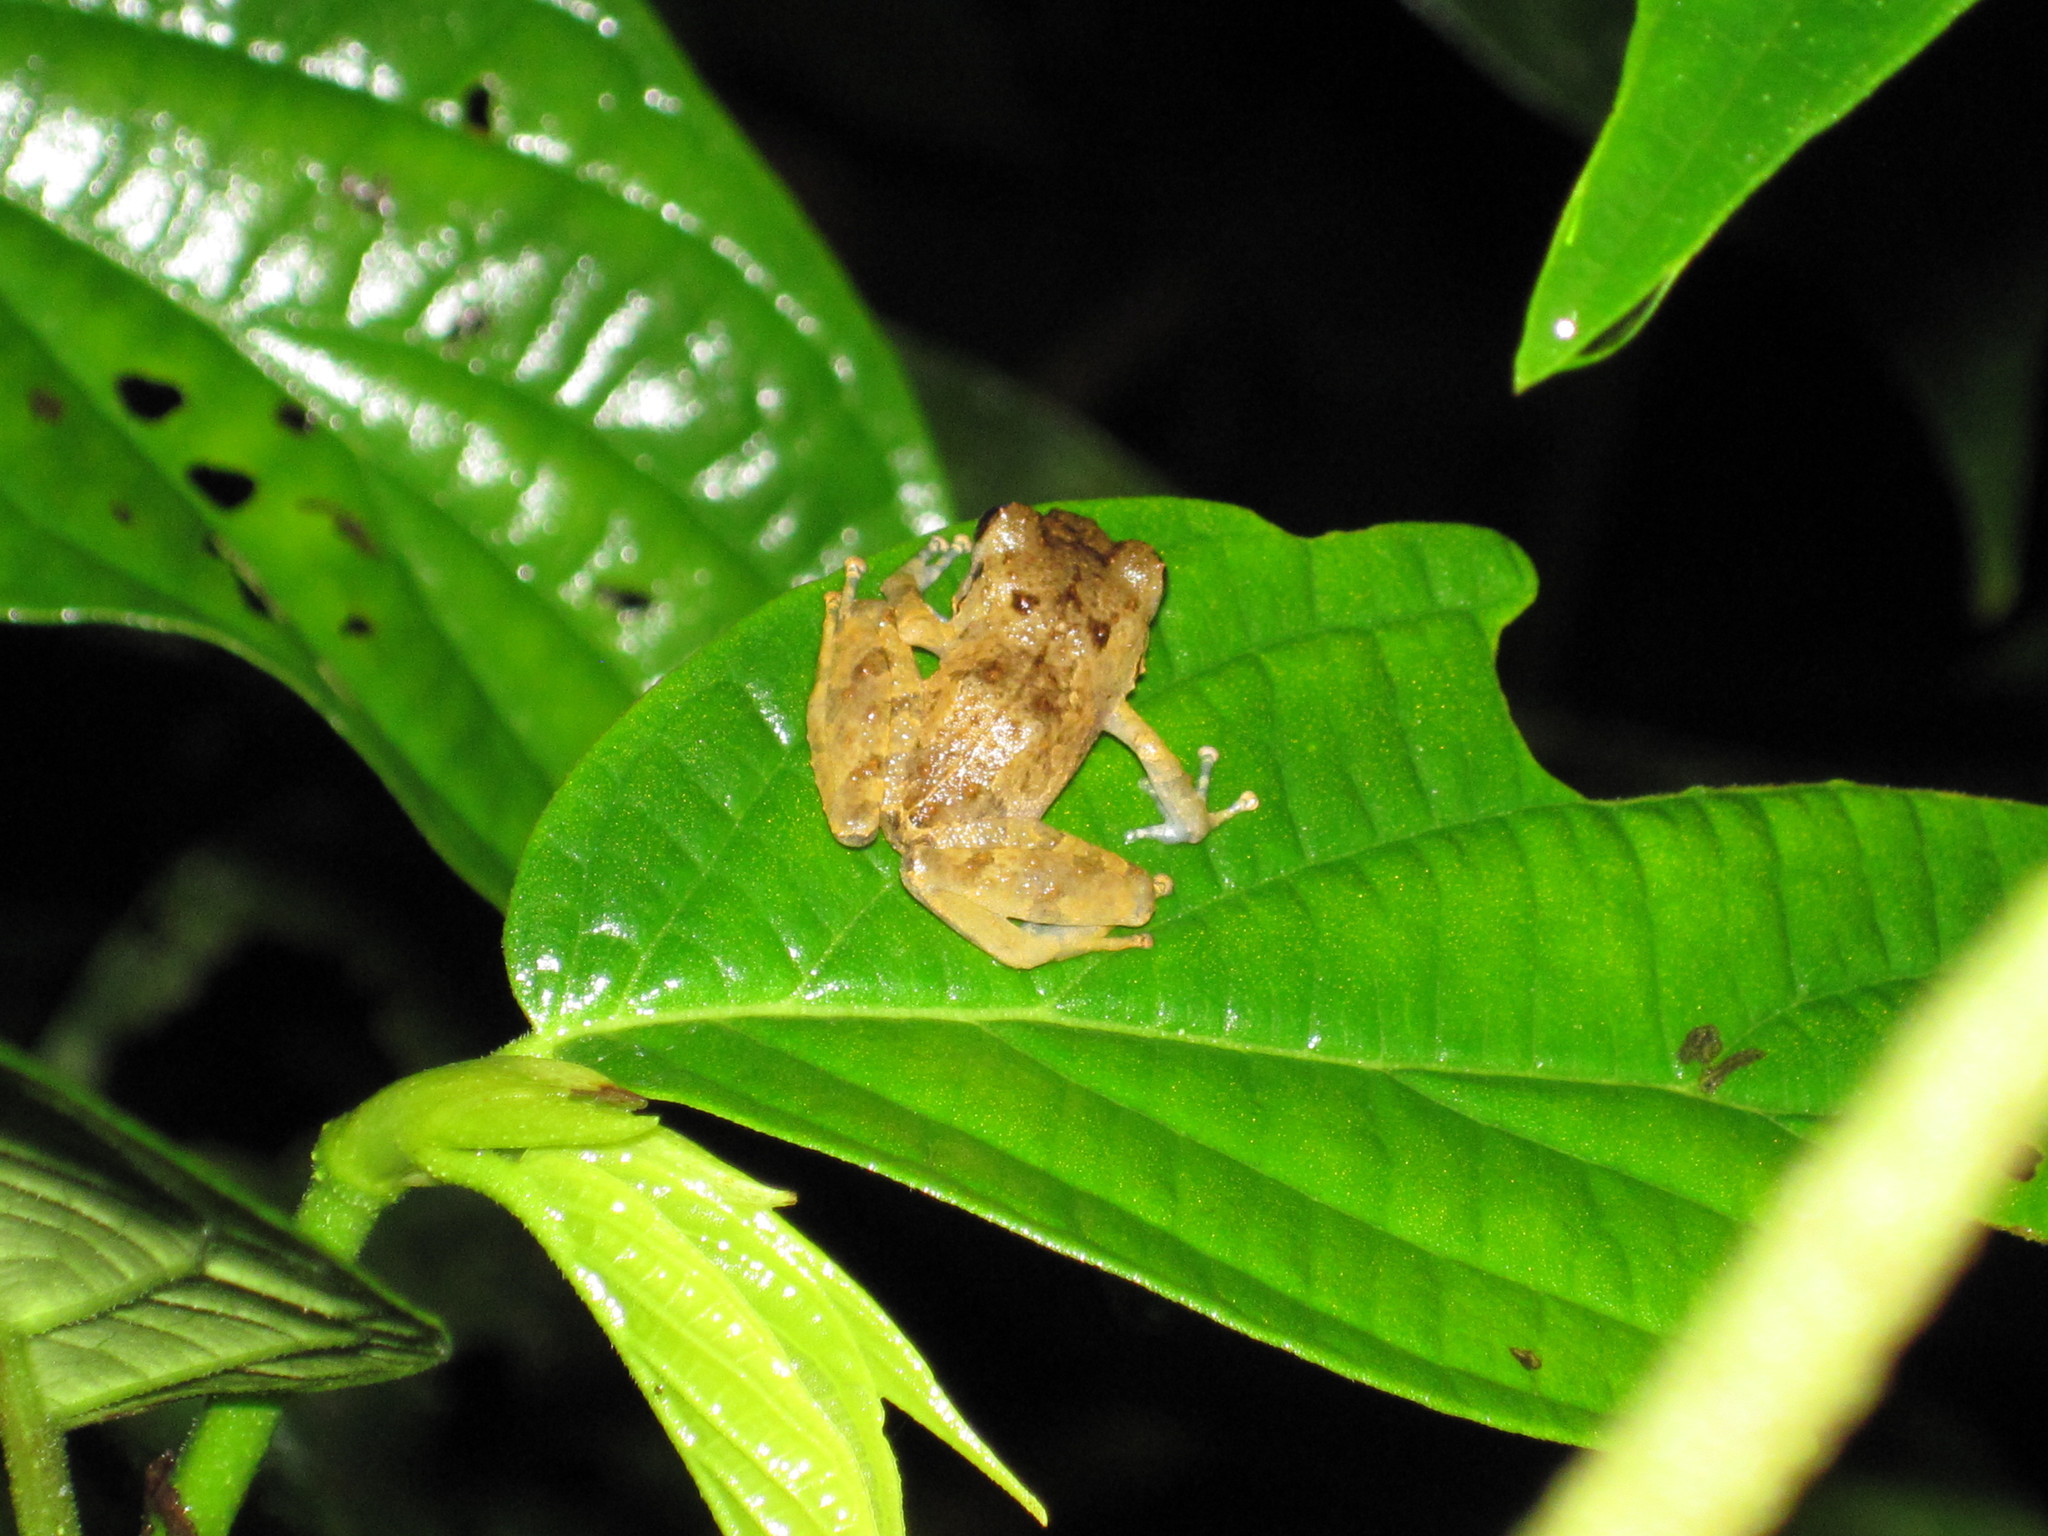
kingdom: Animalia
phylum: Chordata
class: Amphibia
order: Anura
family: Craugastoridae
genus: Pristimantis
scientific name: Pristimantis urichi
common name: Lesser antilles robber frog
